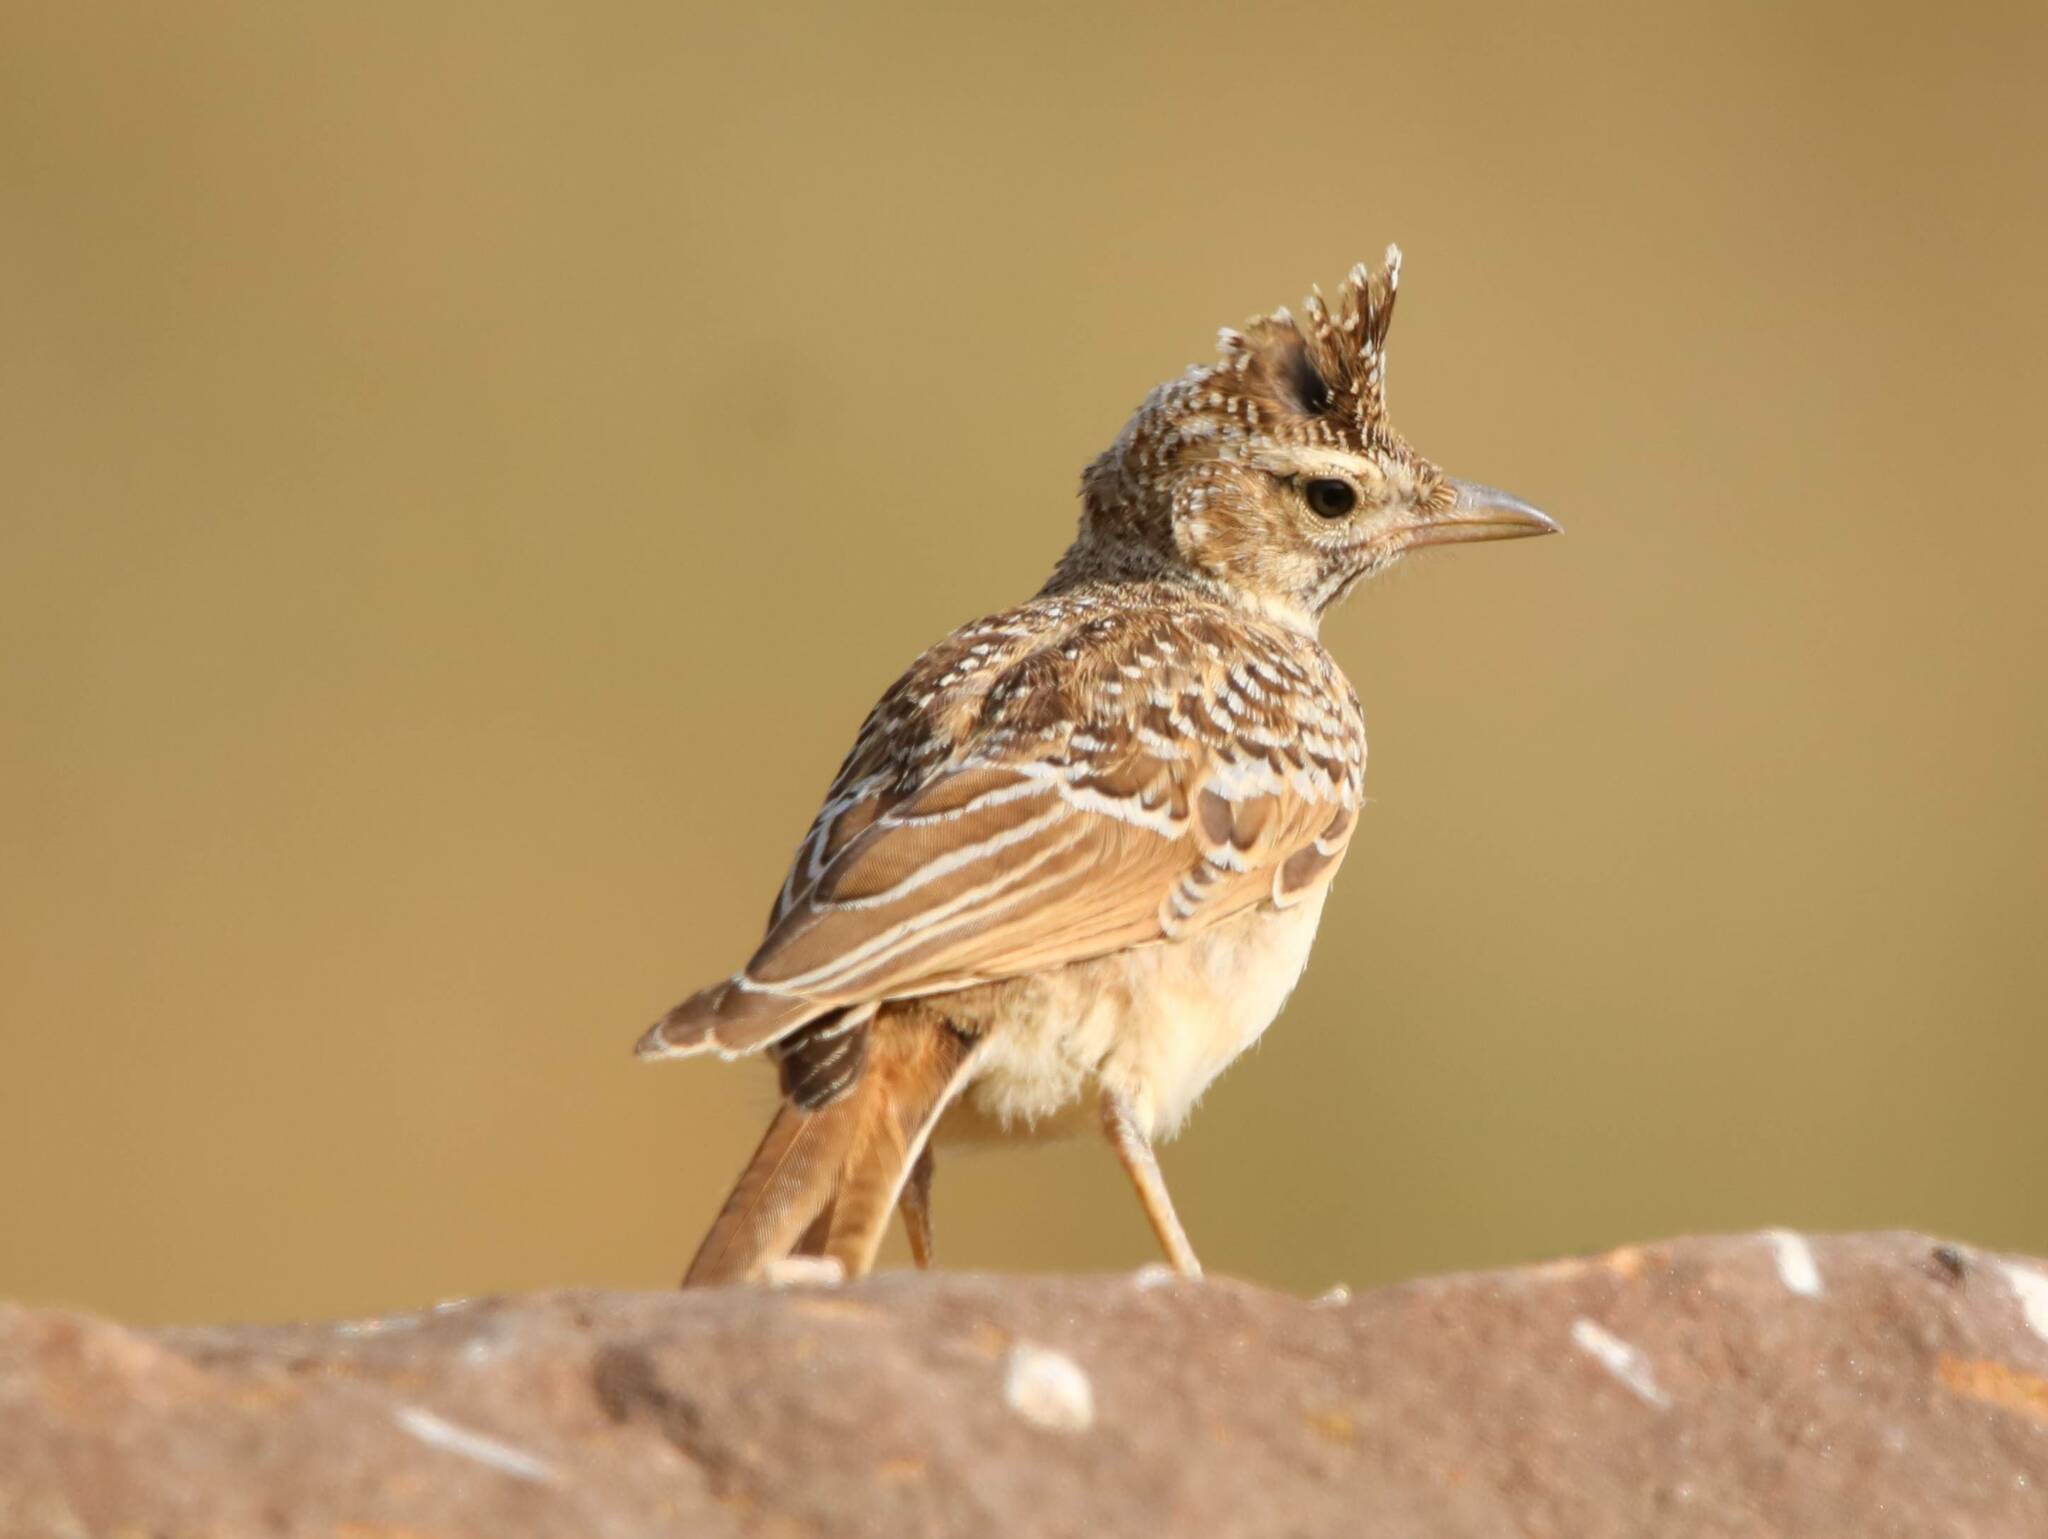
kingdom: Animalia
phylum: Chordata
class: Aves
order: Passeriformes
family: Alaudidae
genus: Galerida
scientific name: Galerida theklae
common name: Thekla lark
